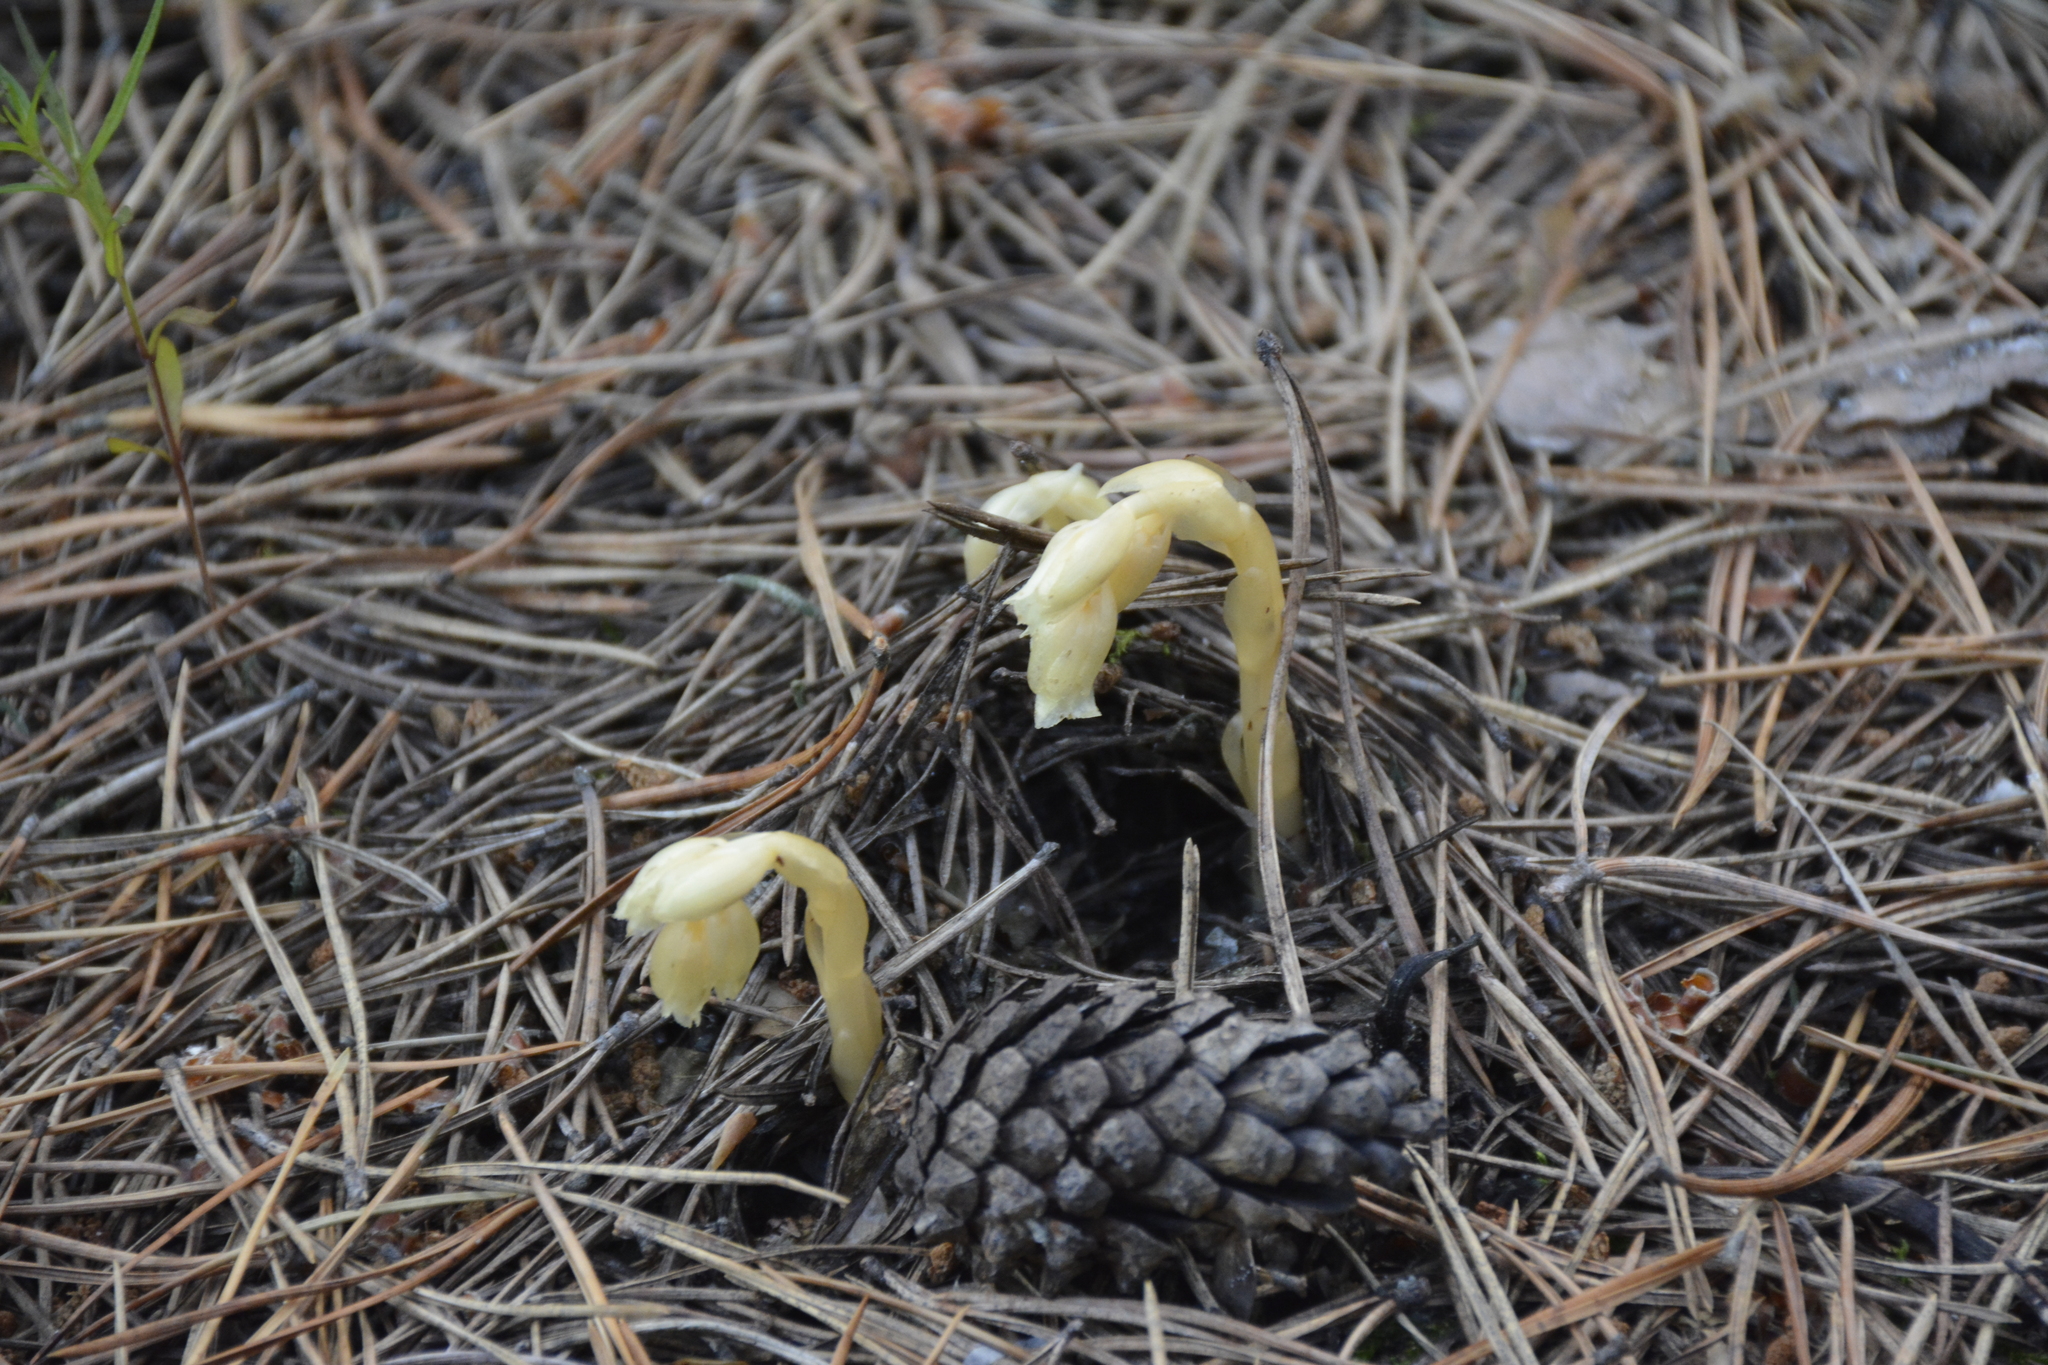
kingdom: Plantae
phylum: Tracheophyta
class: Magnoliopsida
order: Ericales
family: Ericaceae
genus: Hypopitys
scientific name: Hypopitys monotropa
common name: Yellow bird's-nest
